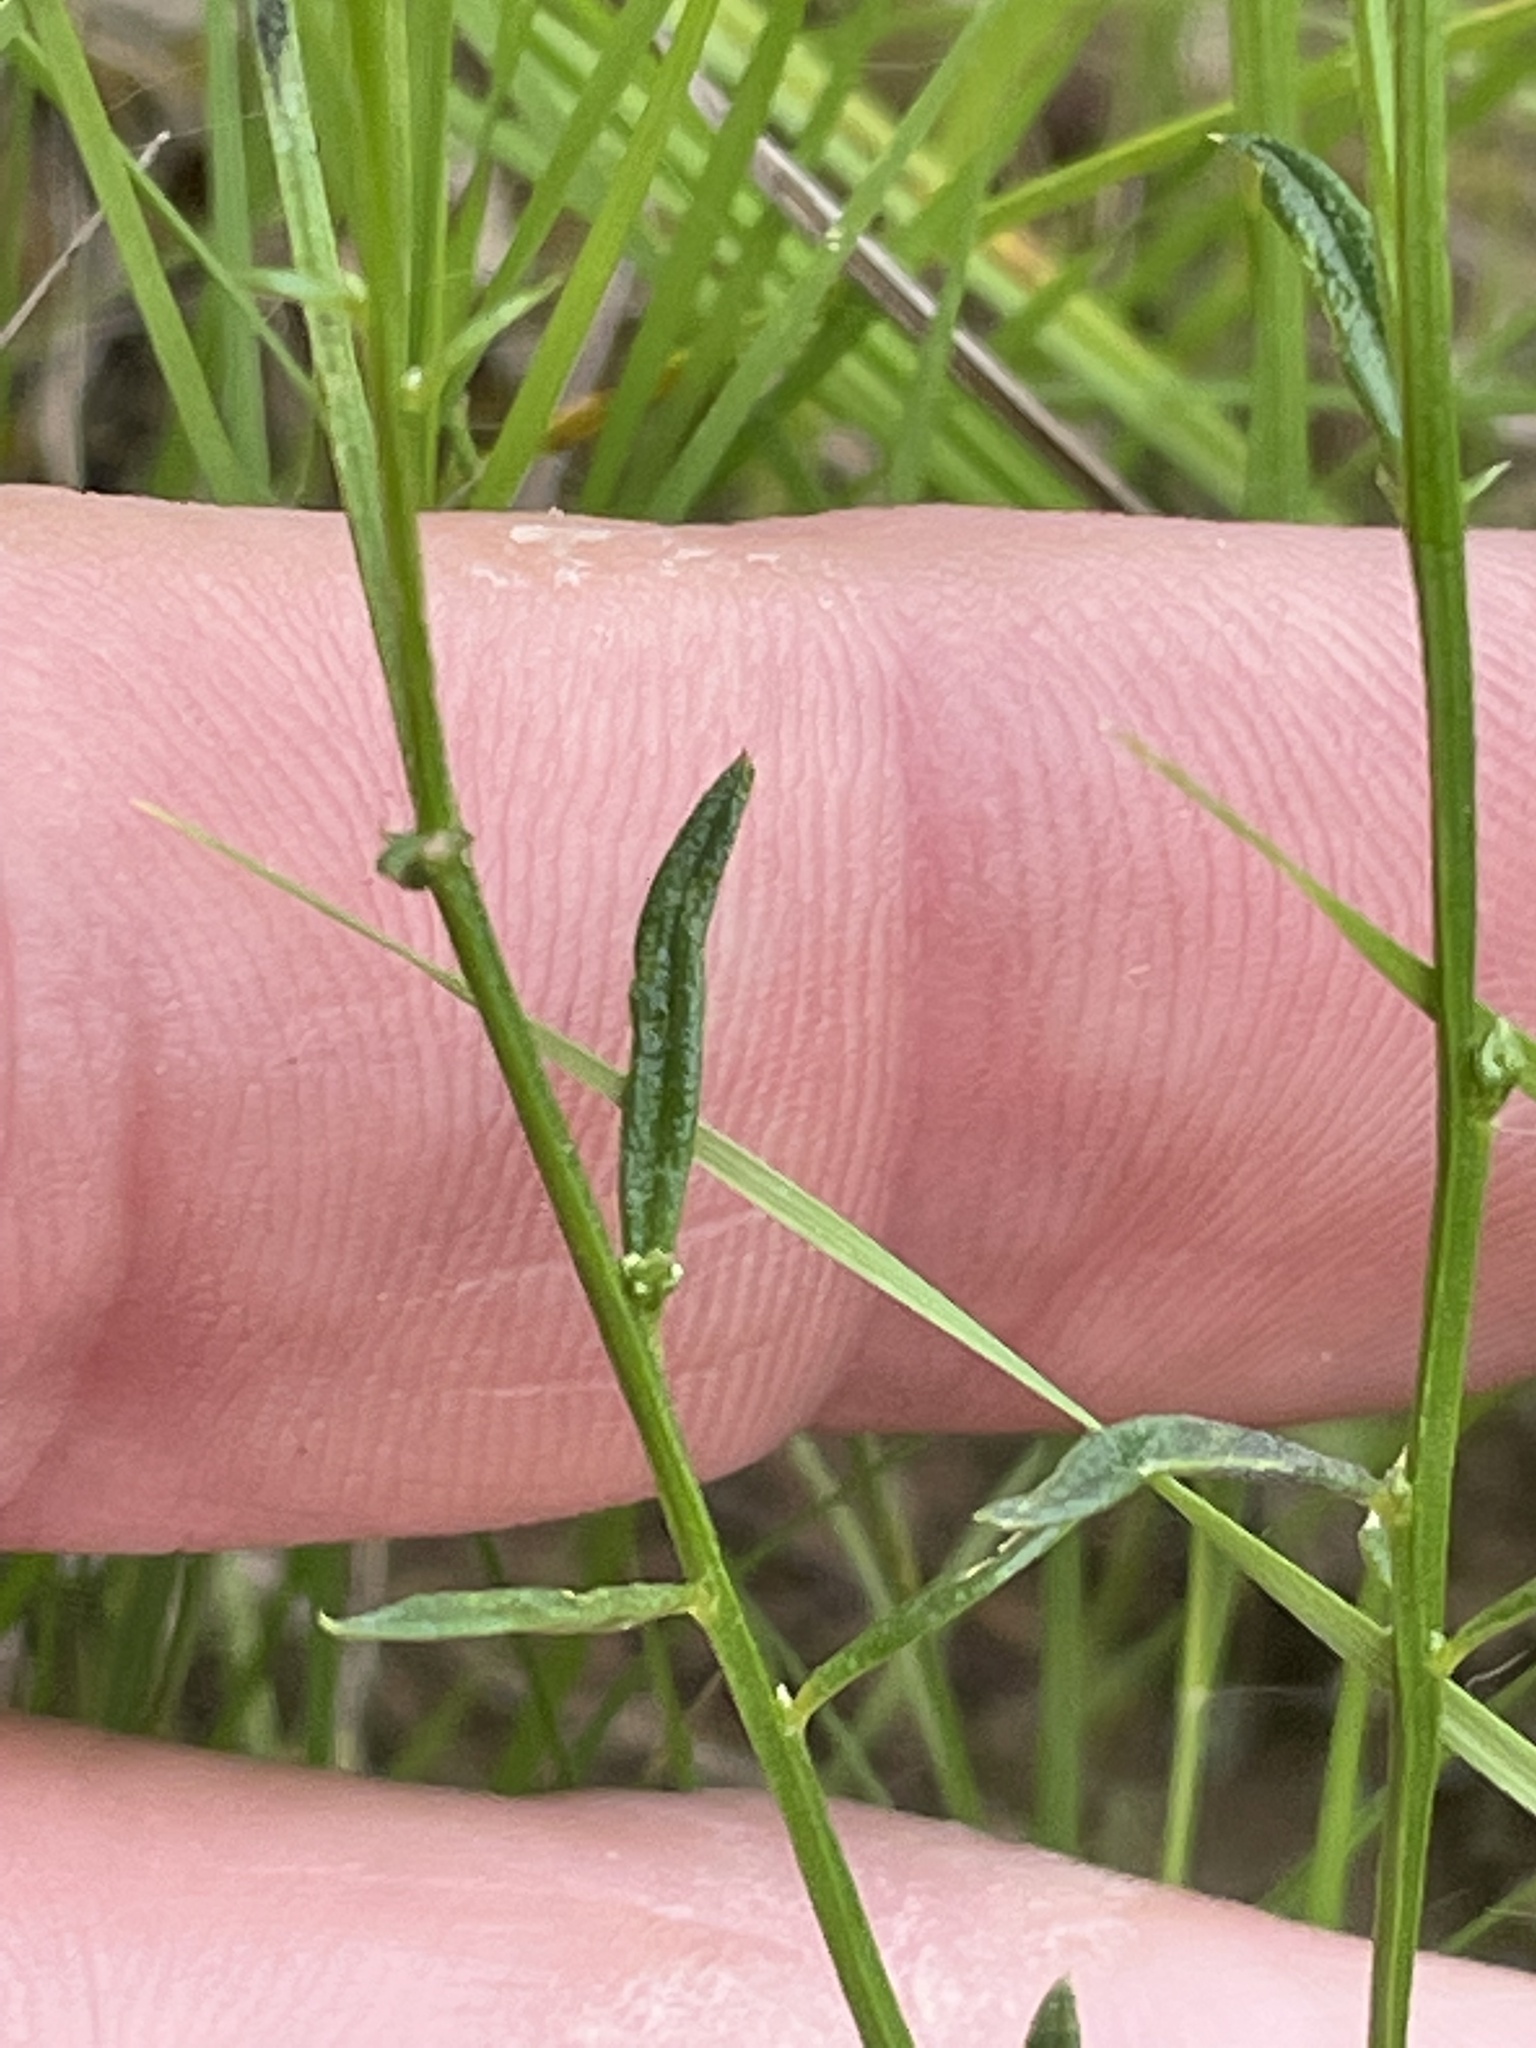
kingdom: Plantae
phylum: Tracheophyta
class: Magnoliopsida
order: Fabales
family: Polygalaceae
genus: Polygala
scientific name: Polygala ambigua
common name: Alternate milkwort
